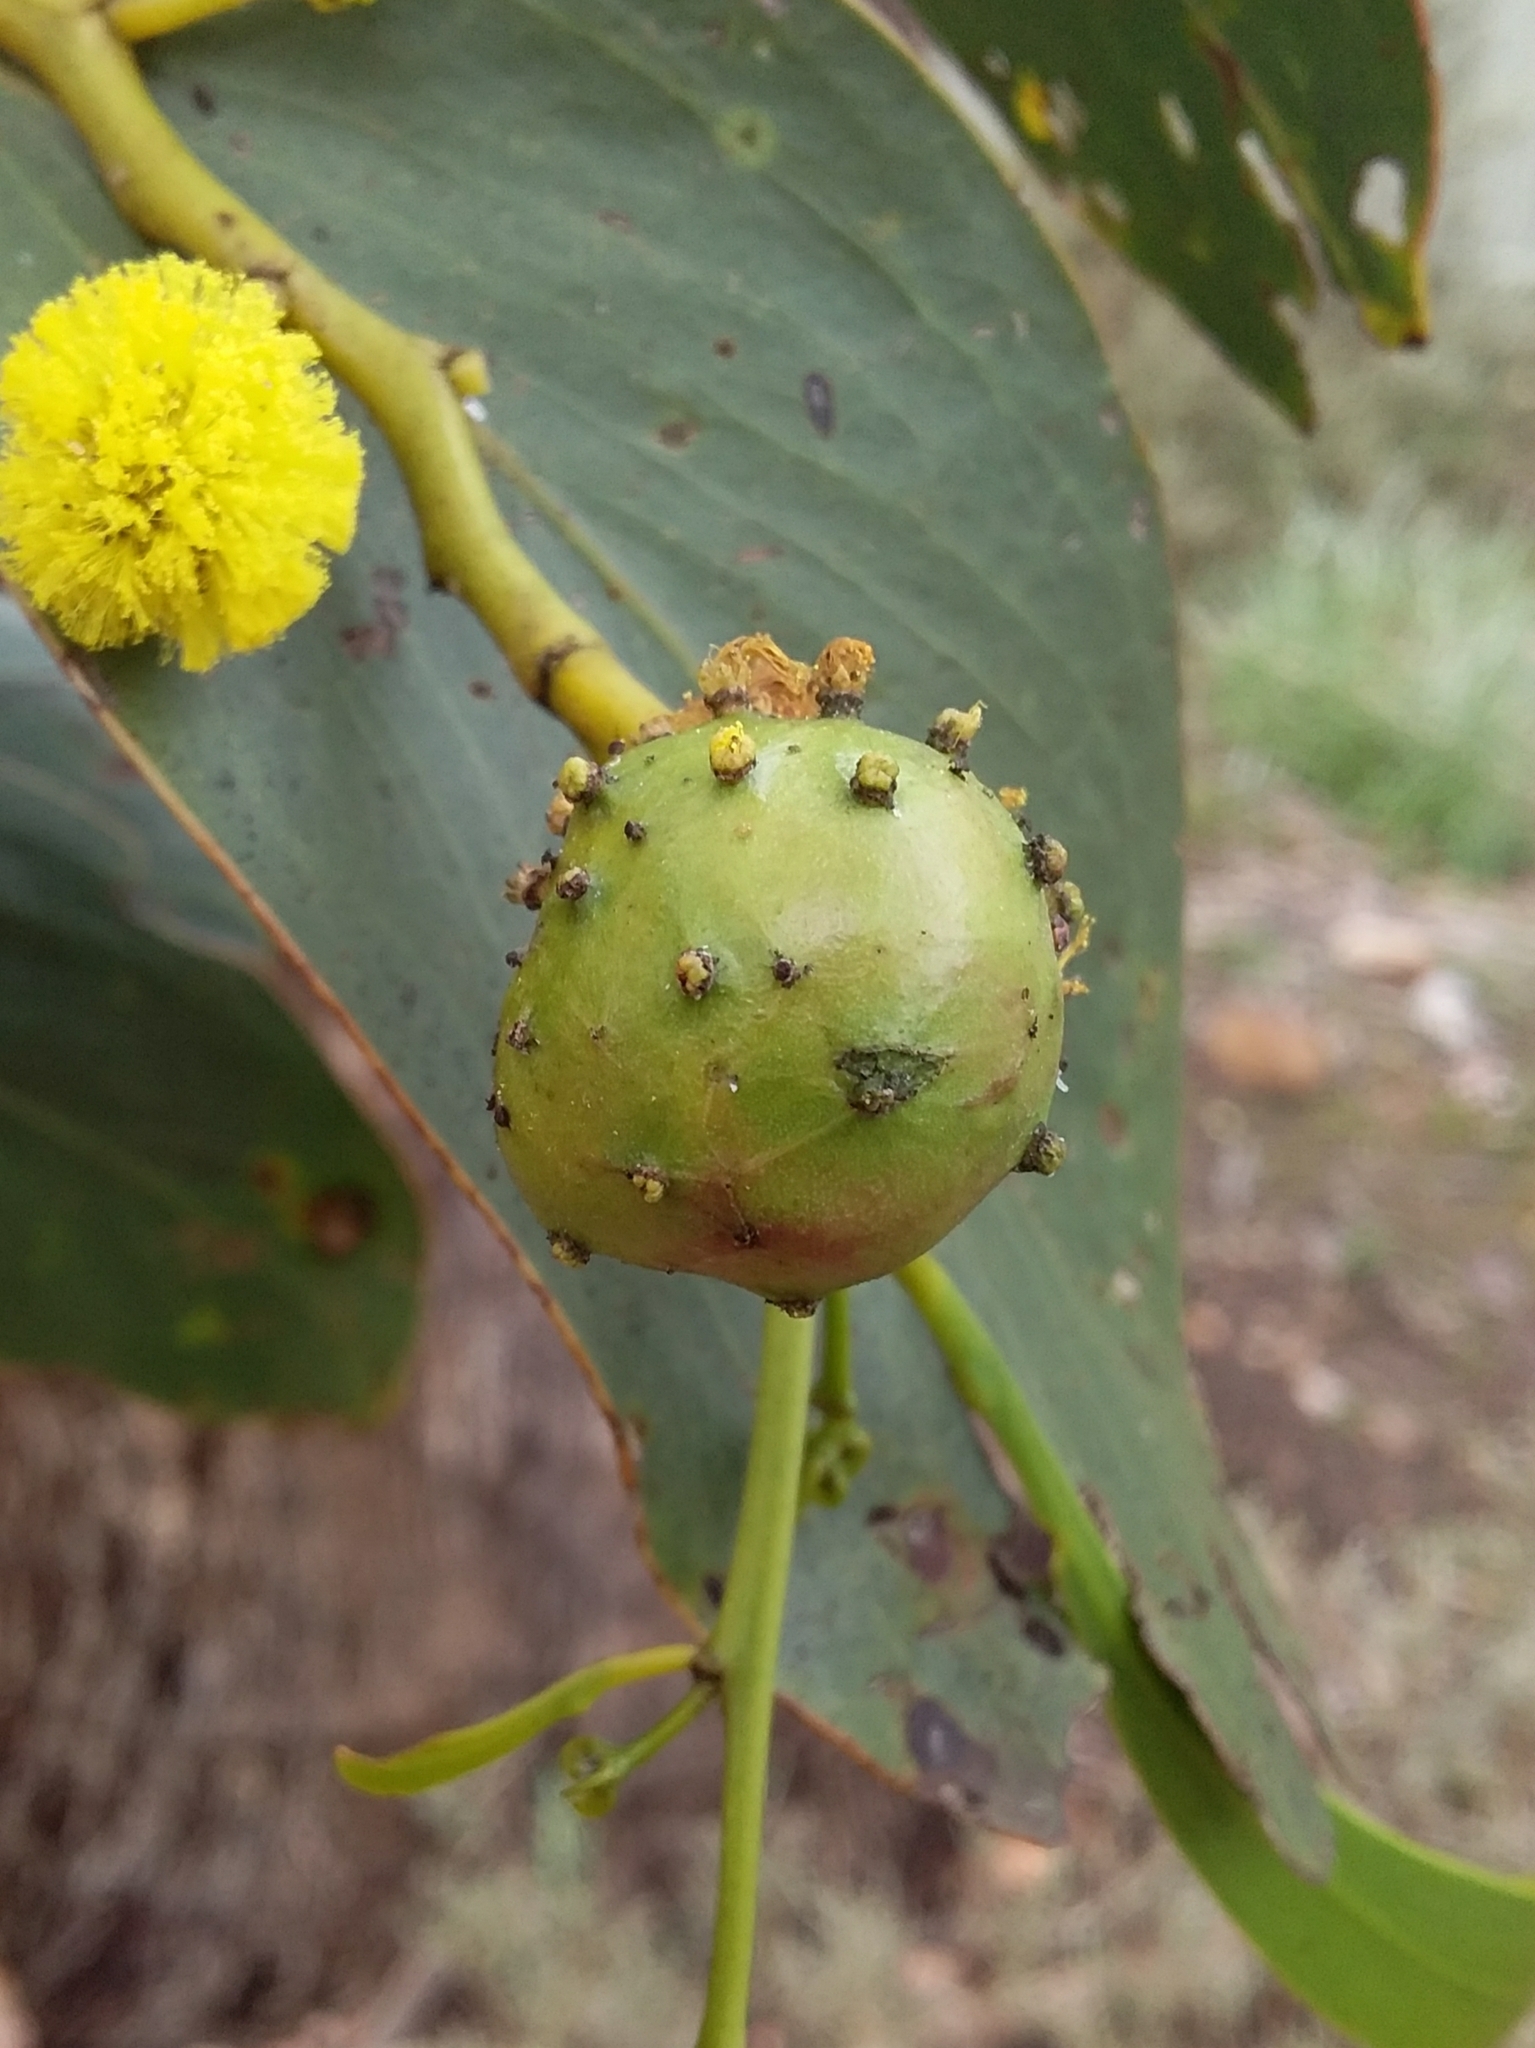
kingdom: Animalia
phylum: Arthropoda
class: Insecta
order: Hymenoptera
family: Pteromalidae
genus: Trichilogaster
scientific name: Trichilogaster signiventris
